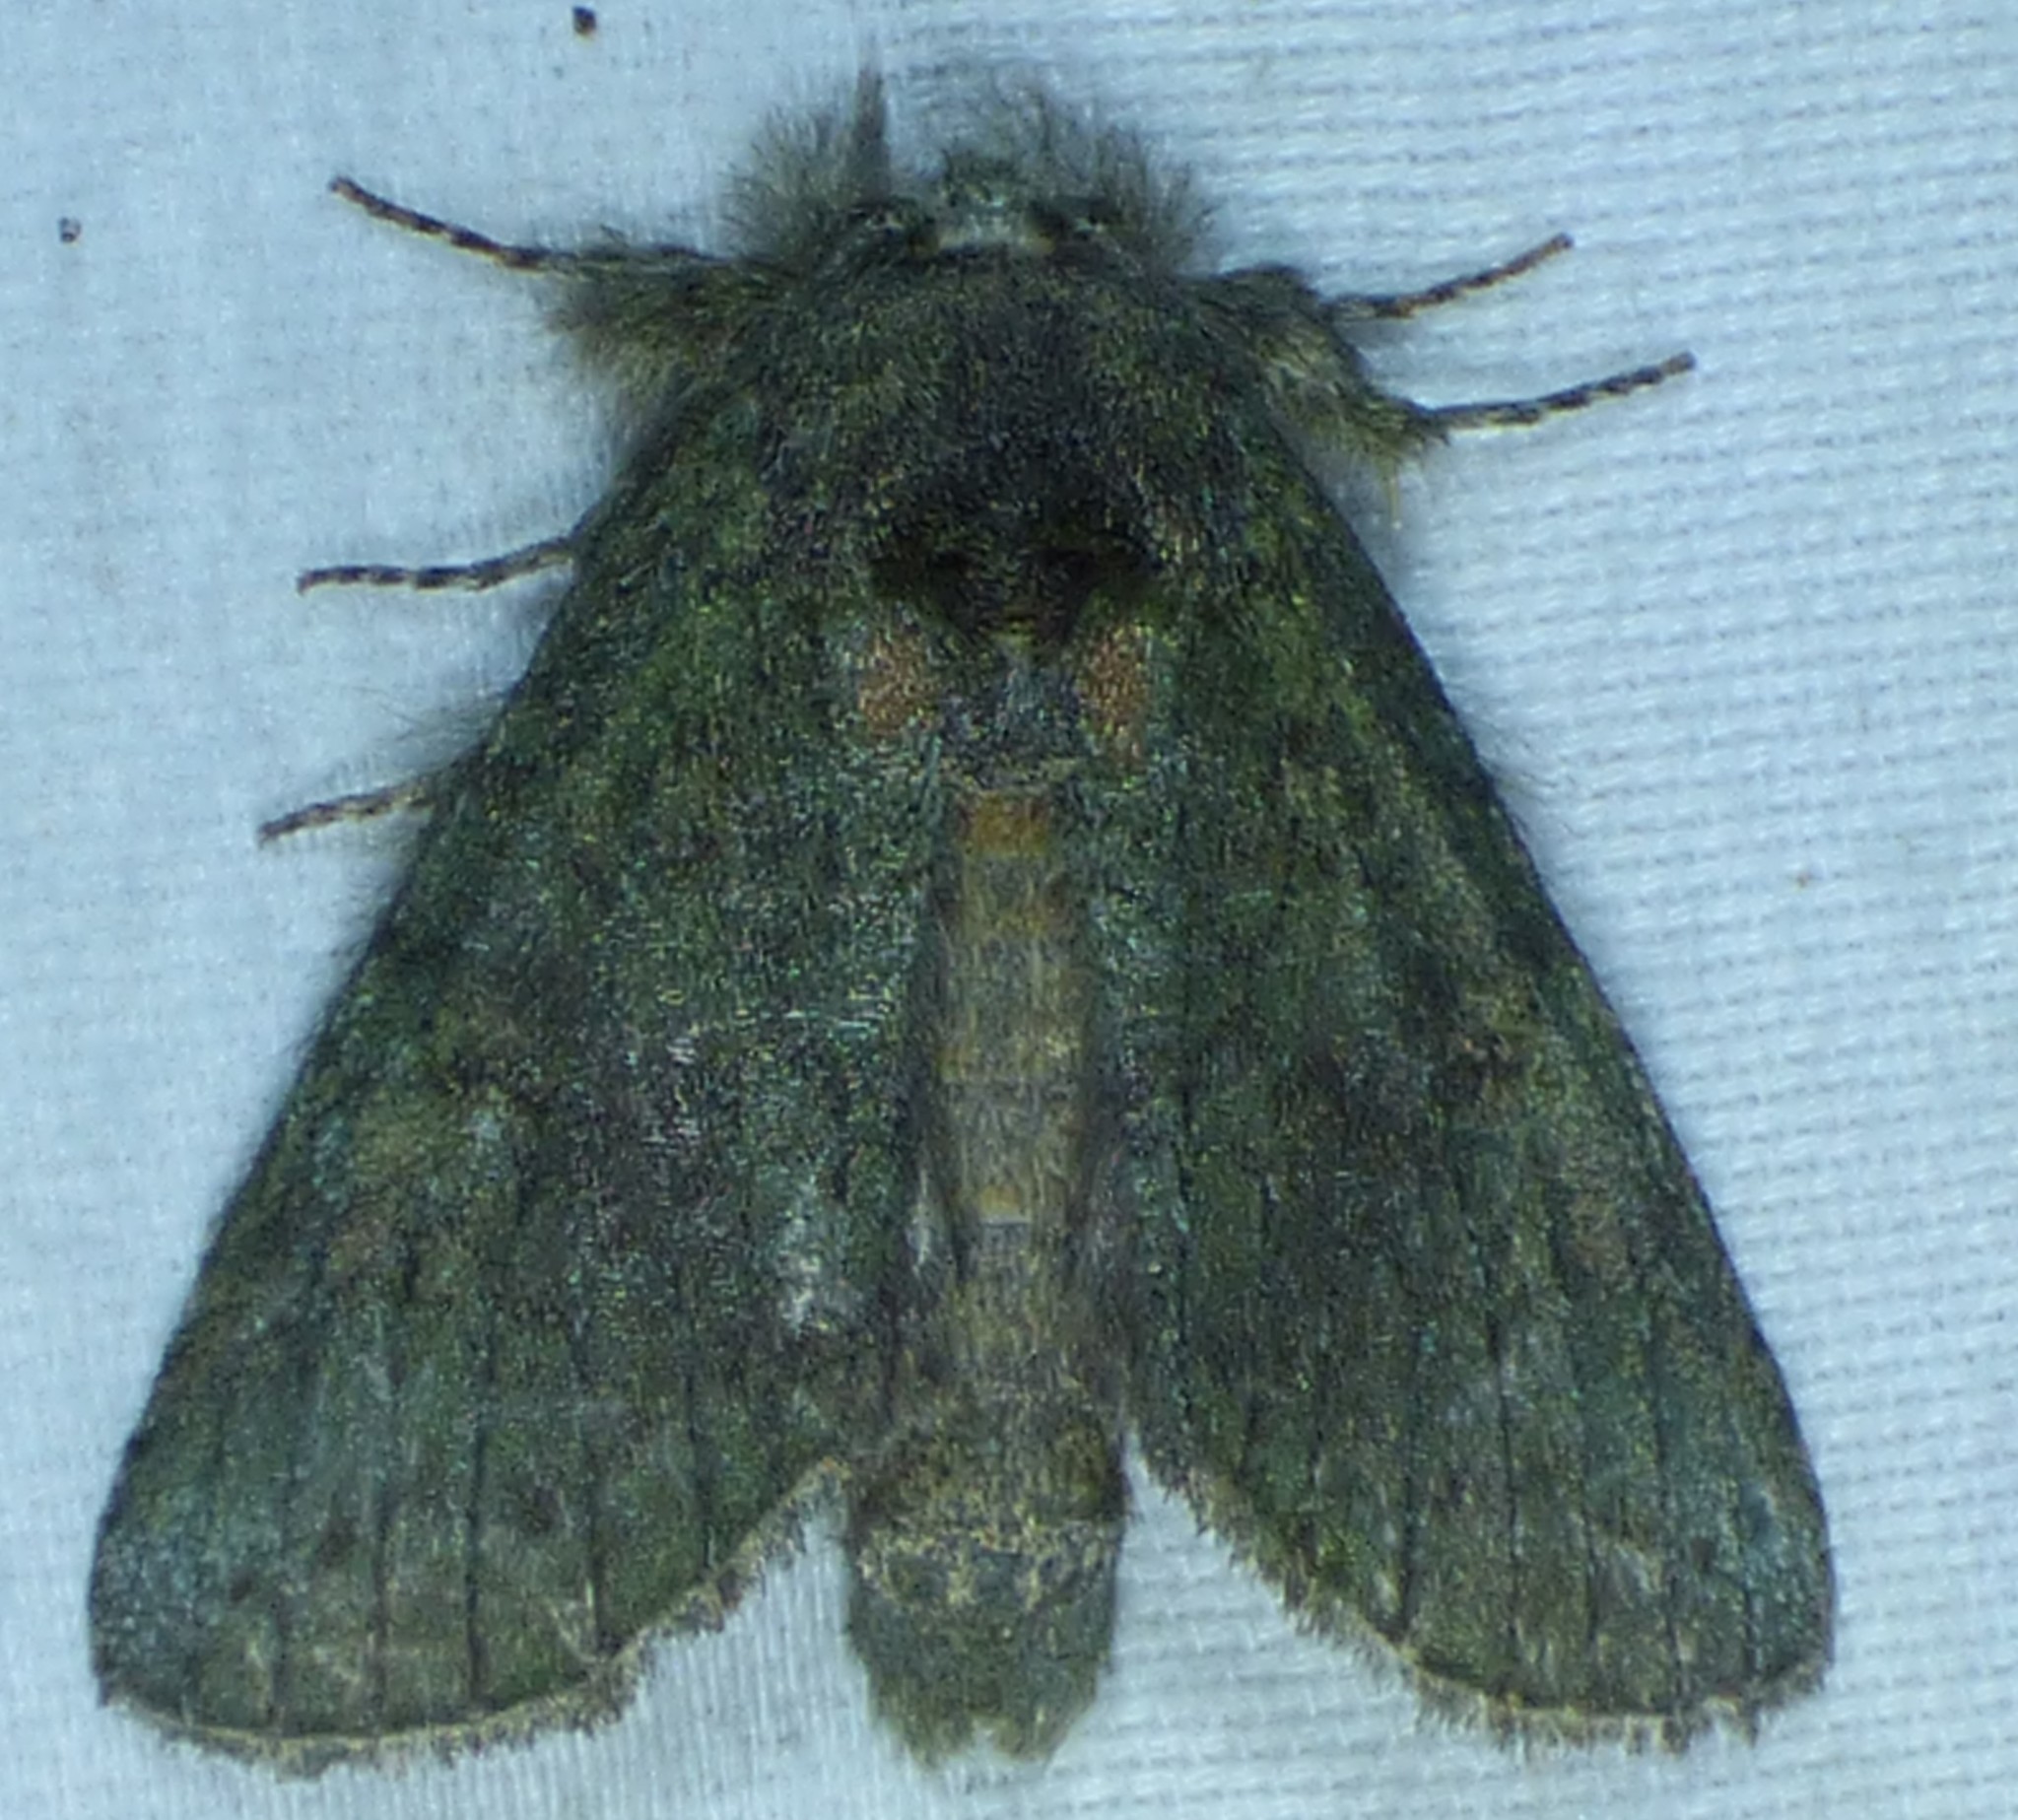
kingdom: Animalia
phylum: Arthropoda
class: Insecta
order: Lepidoptera
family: Notodontidae
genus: Disphragis
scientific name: Disphragis Cecrita guttivitta
